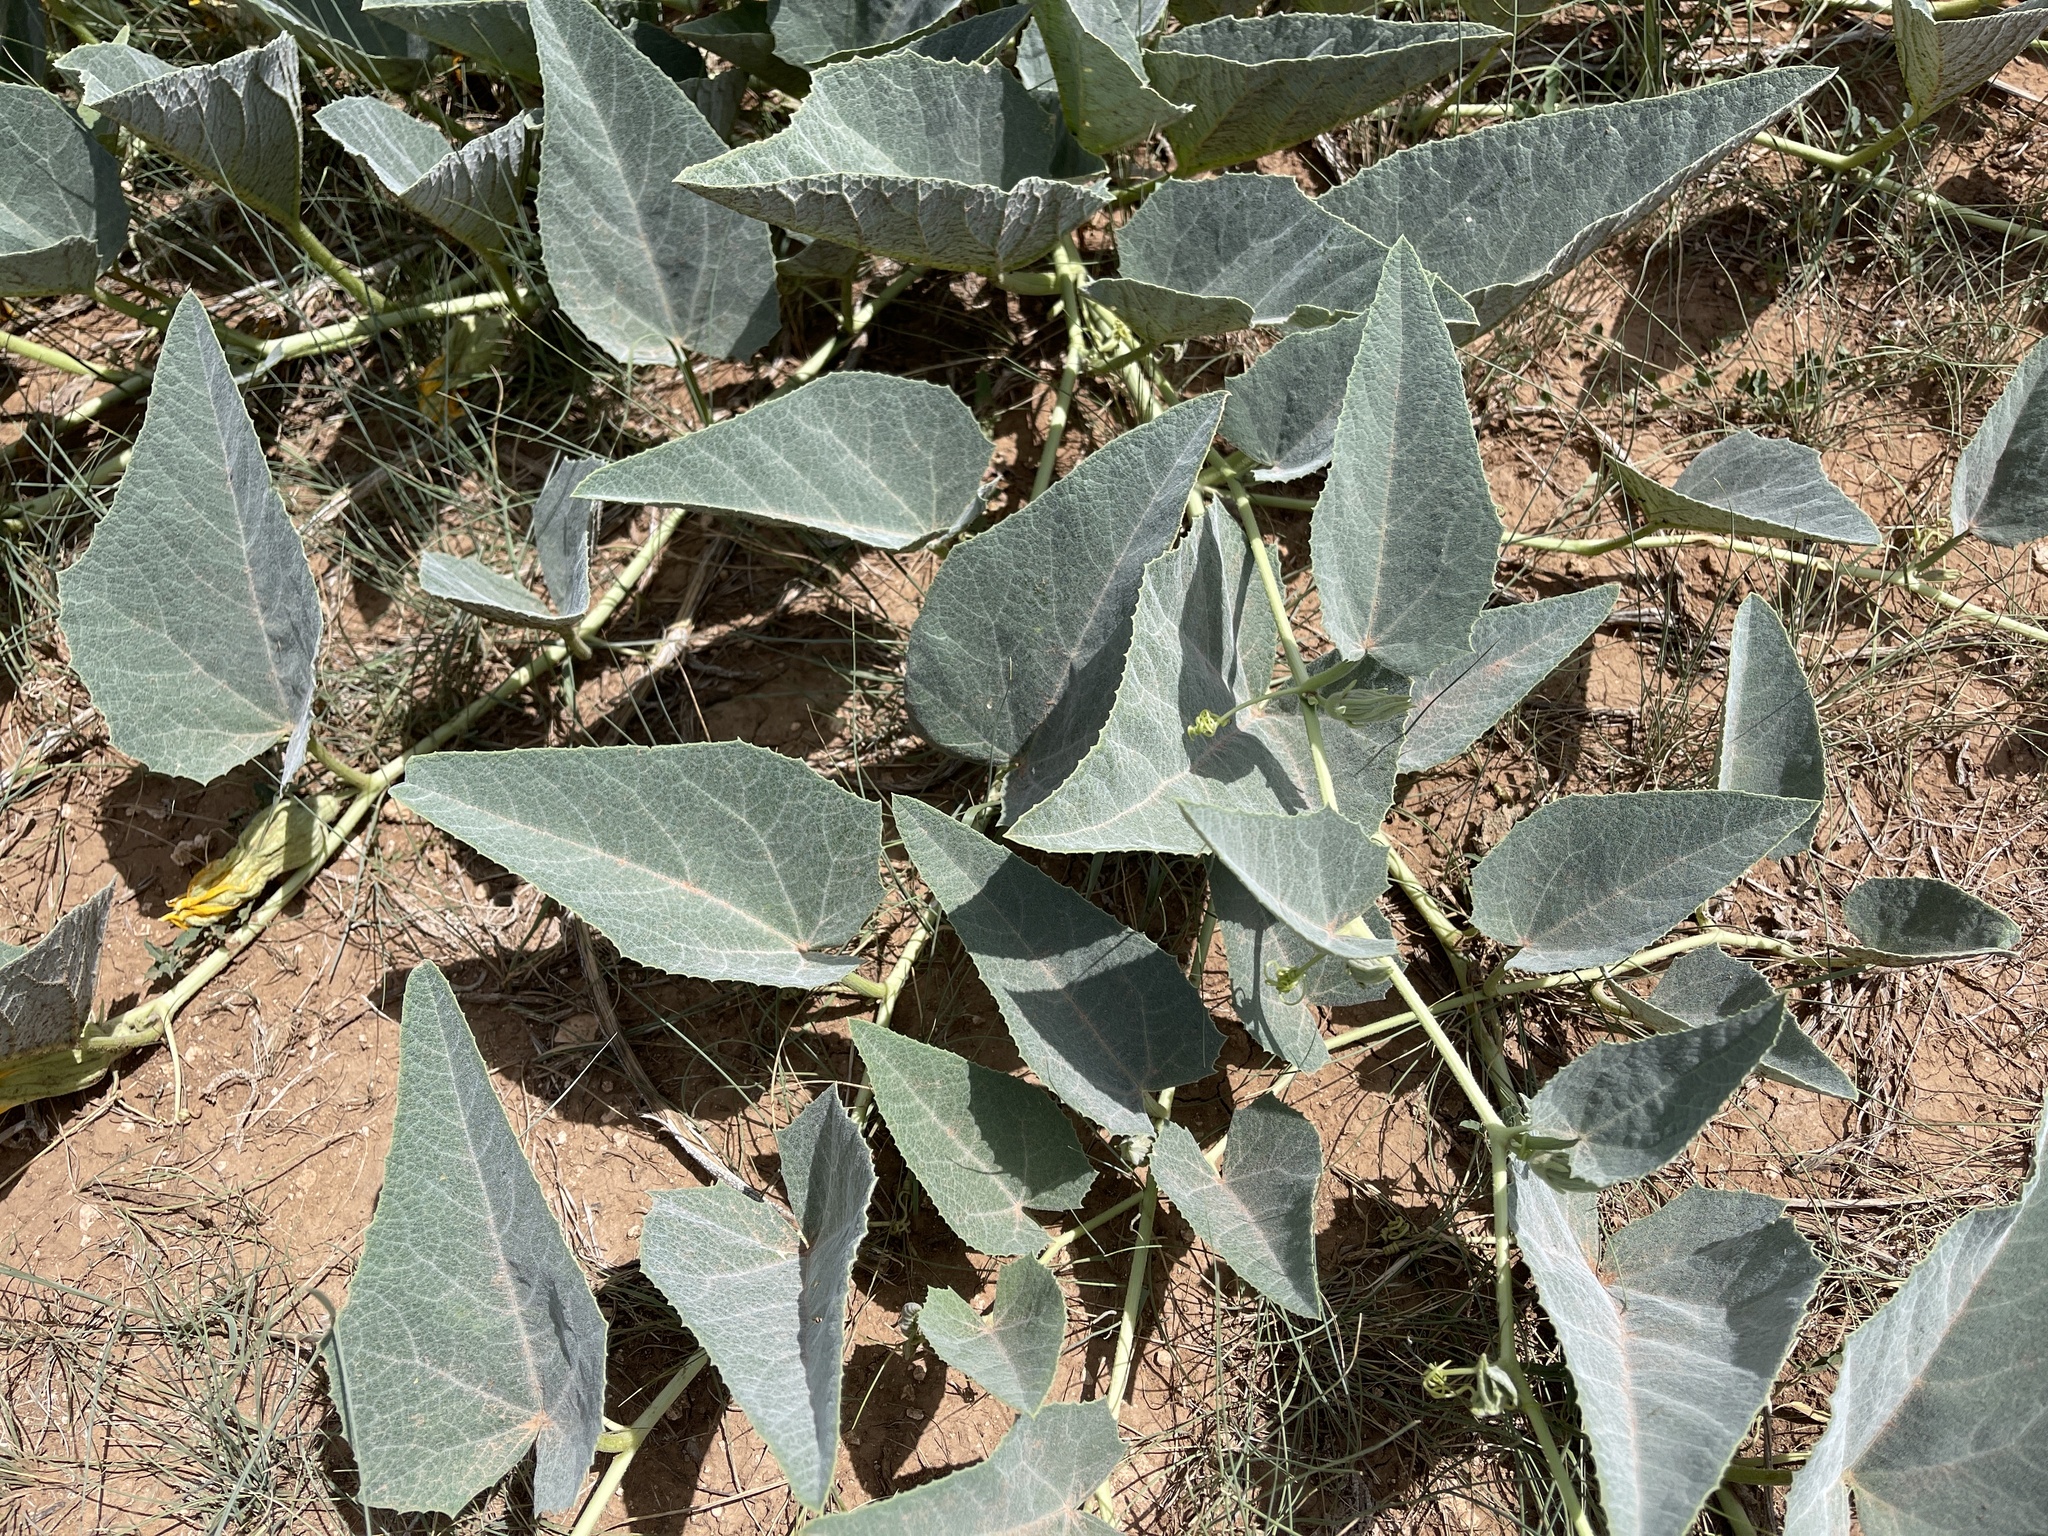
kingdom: Plantae
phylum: Tracheophyta
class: Magnoliopsida
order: Cucurbitales
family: Cucurbitaceae
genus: Cucurbita
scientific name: Cucurbita foetidissima
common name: Buffalo gourd
